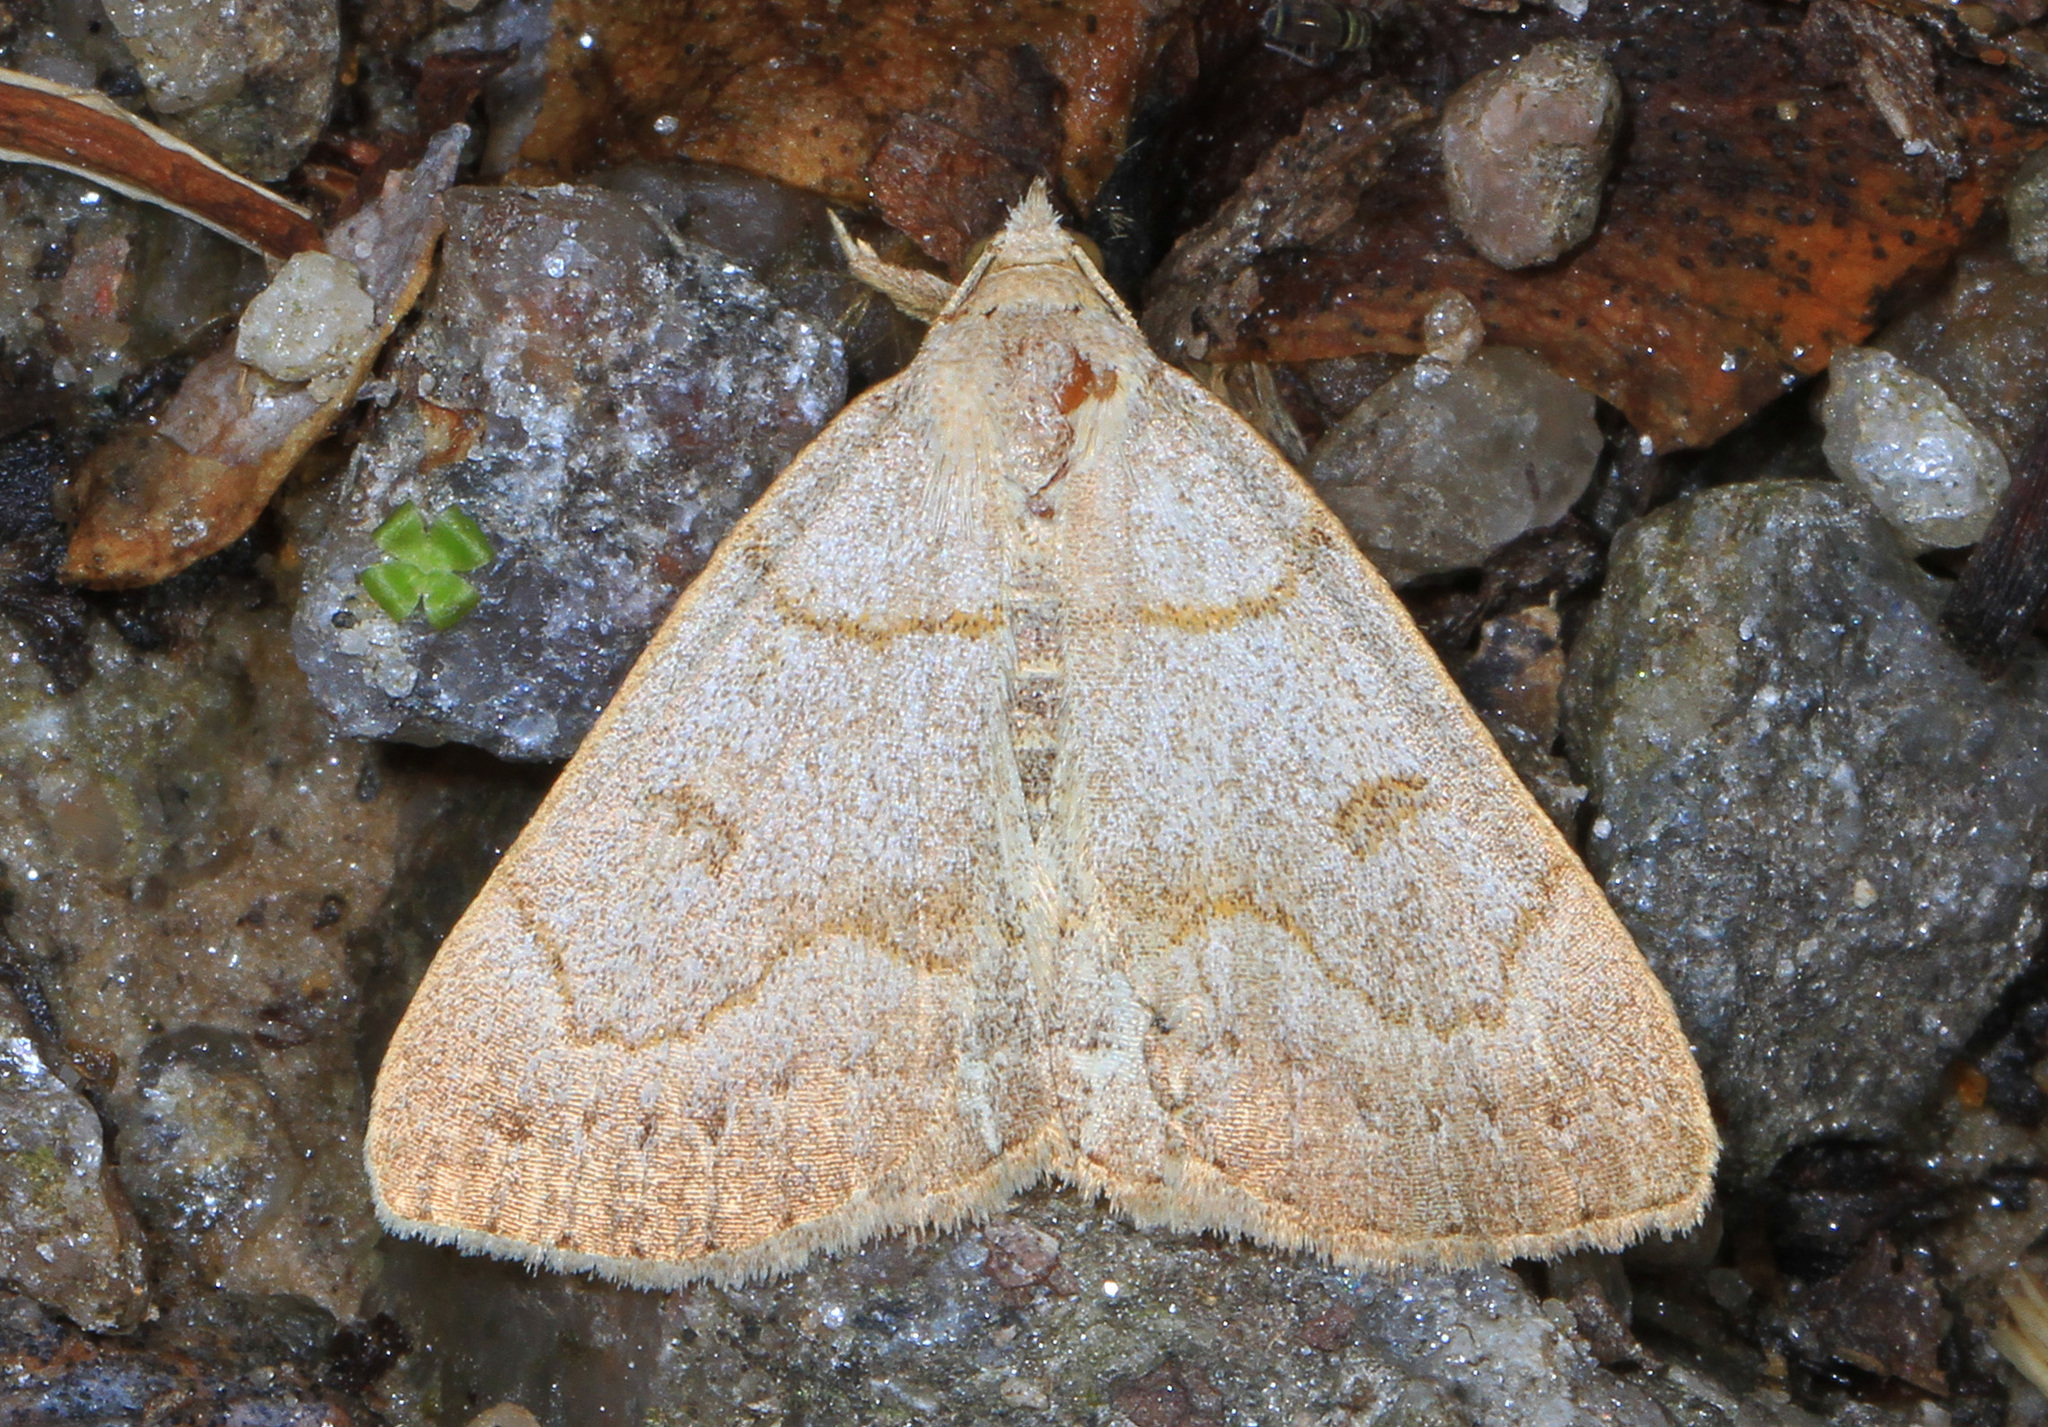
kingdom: Animalia
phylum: Arthropoda
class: Insecta
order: Lepidoptera
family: Erebidae
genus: Macrochilo
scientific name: Macrochilo morbidalis
